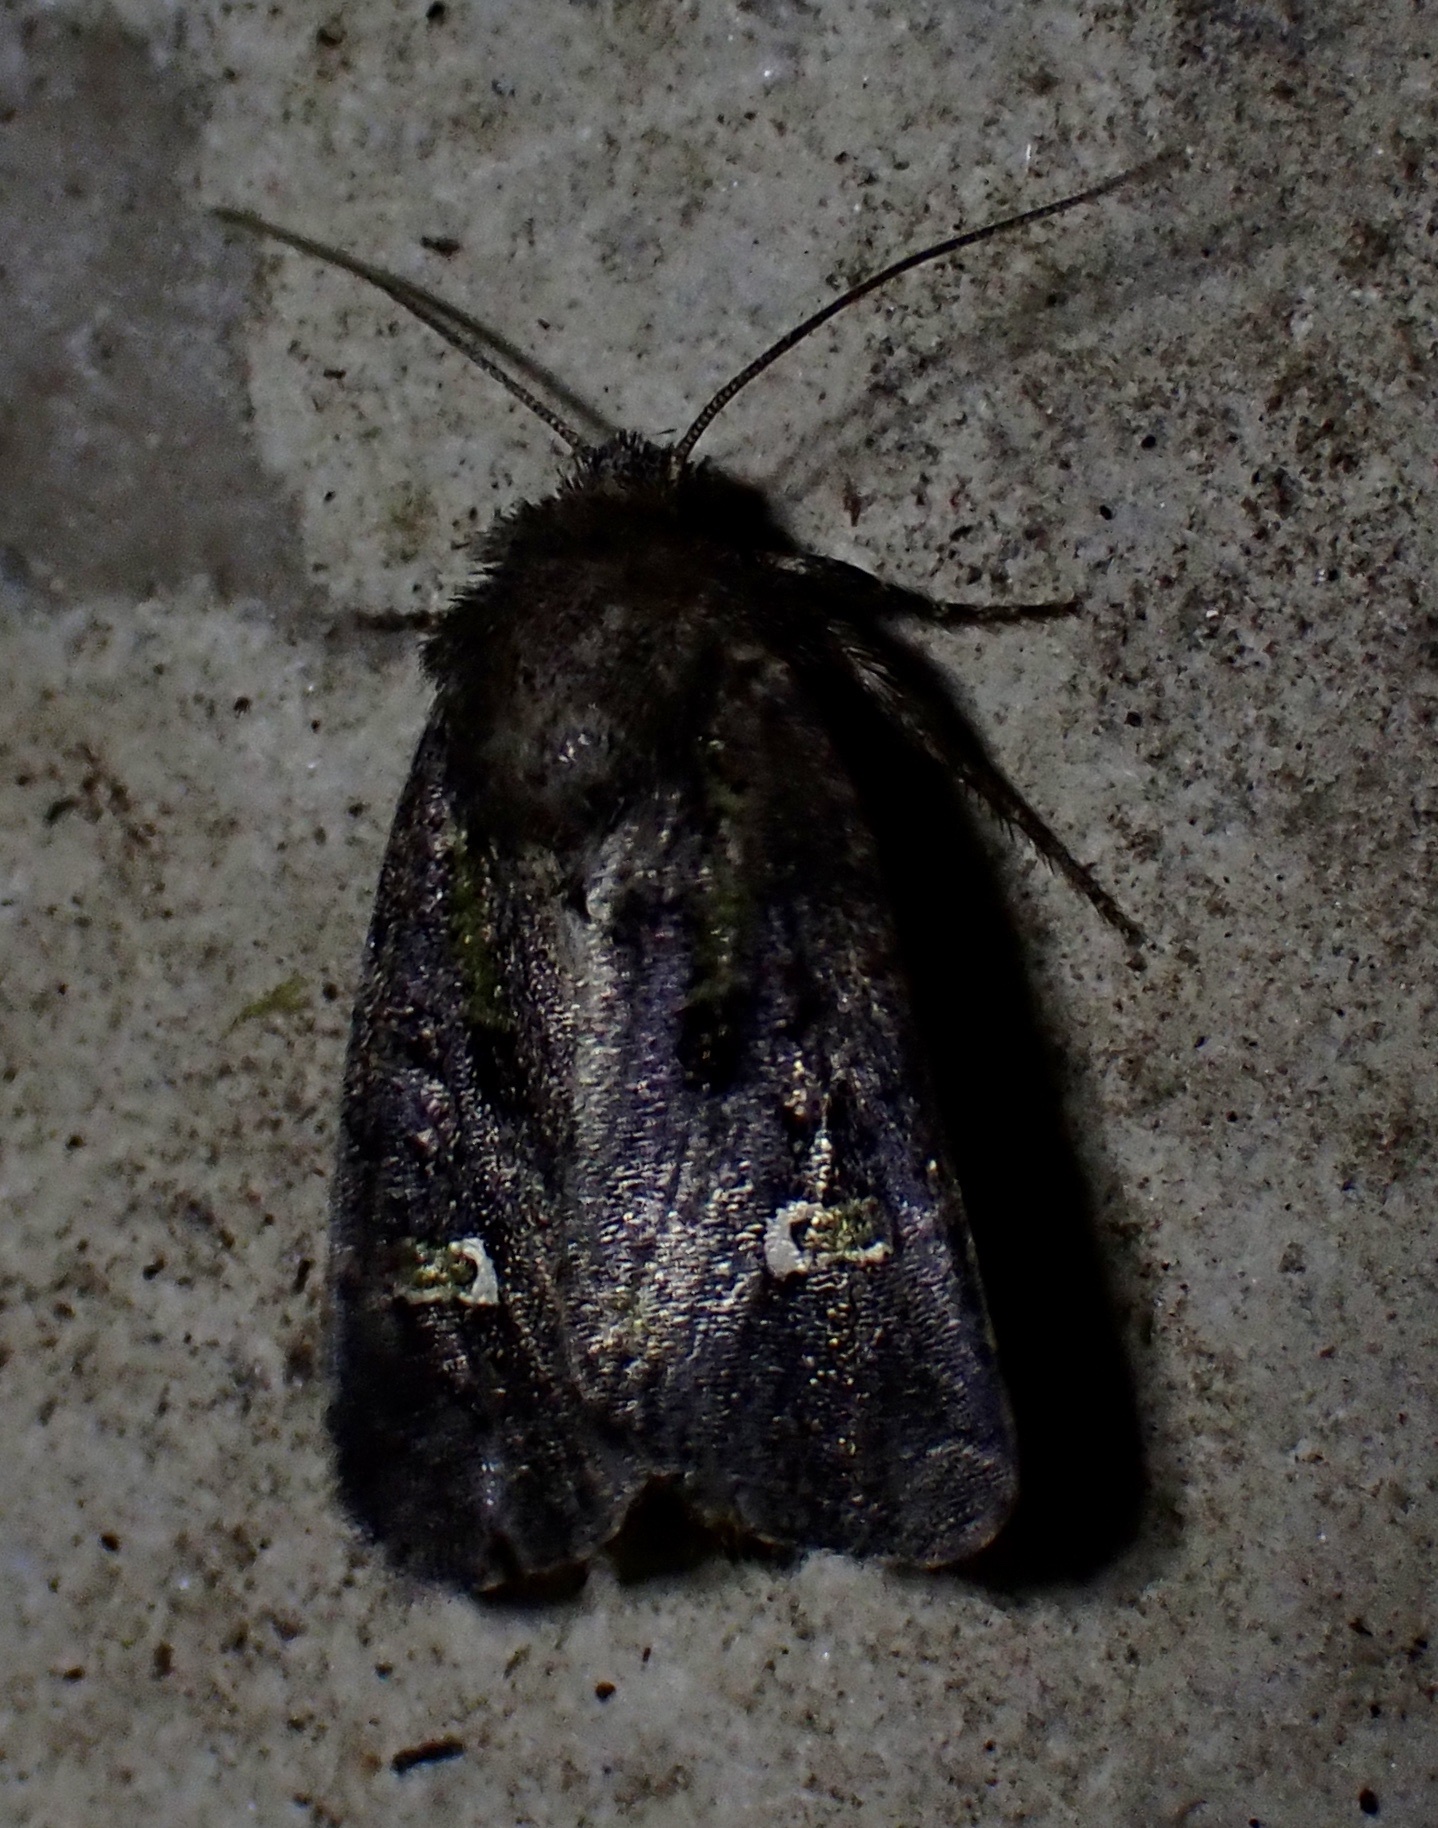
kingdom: Animalia
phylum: Arthropoda
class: Insecta
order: Lepidoptera
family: Noctuidae
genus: Lacinipolia
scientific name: Lacinipolia renigera
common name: Kidney-spotted minor
